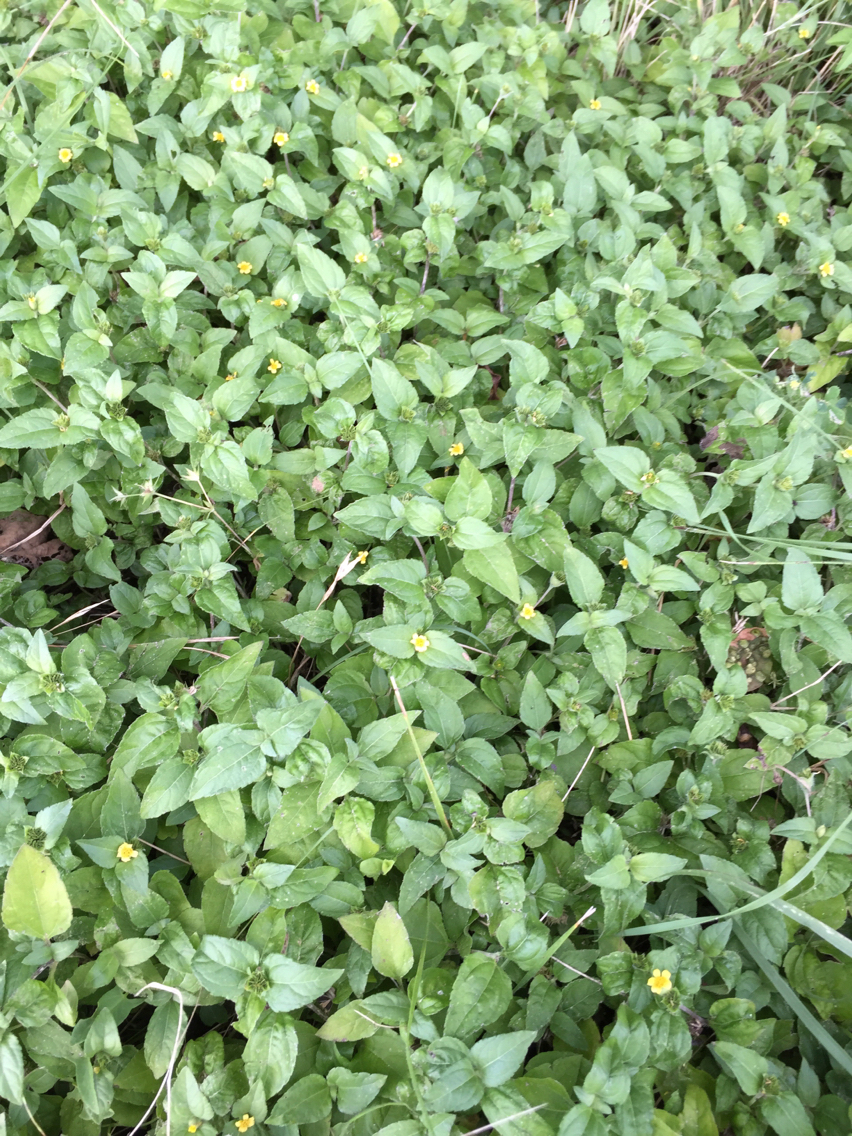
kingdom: Plantae
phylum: Tracheophyta
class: Magnoliopsida
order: Asterales
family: Asteraceae
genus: Calyptocarpus
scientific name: Calyptocarpus vialis
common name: Straggler daisy
